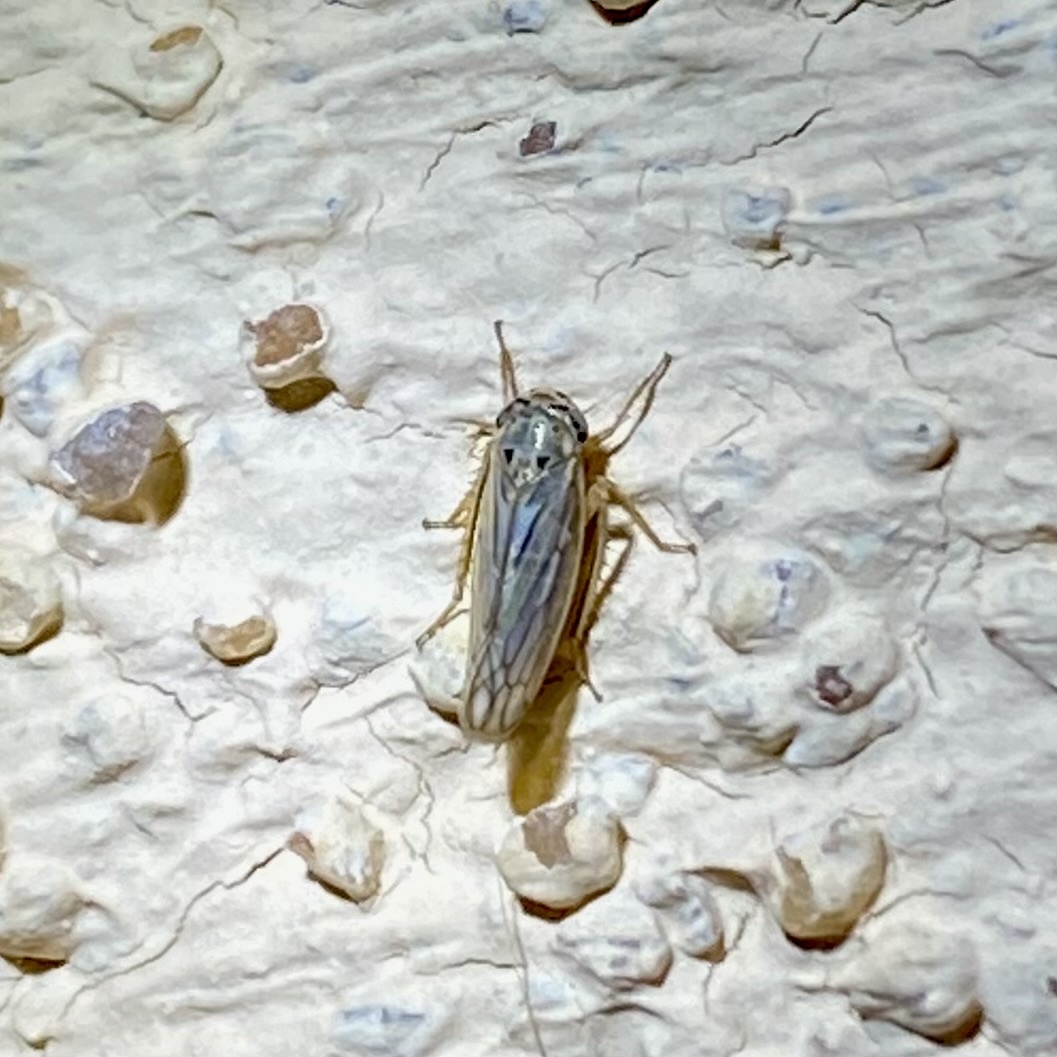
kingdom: Animalia
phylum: Arthropoda
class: Insecta
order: Hemiptera
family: Cicadellidae
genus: Exitianus
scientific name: Exitianus
